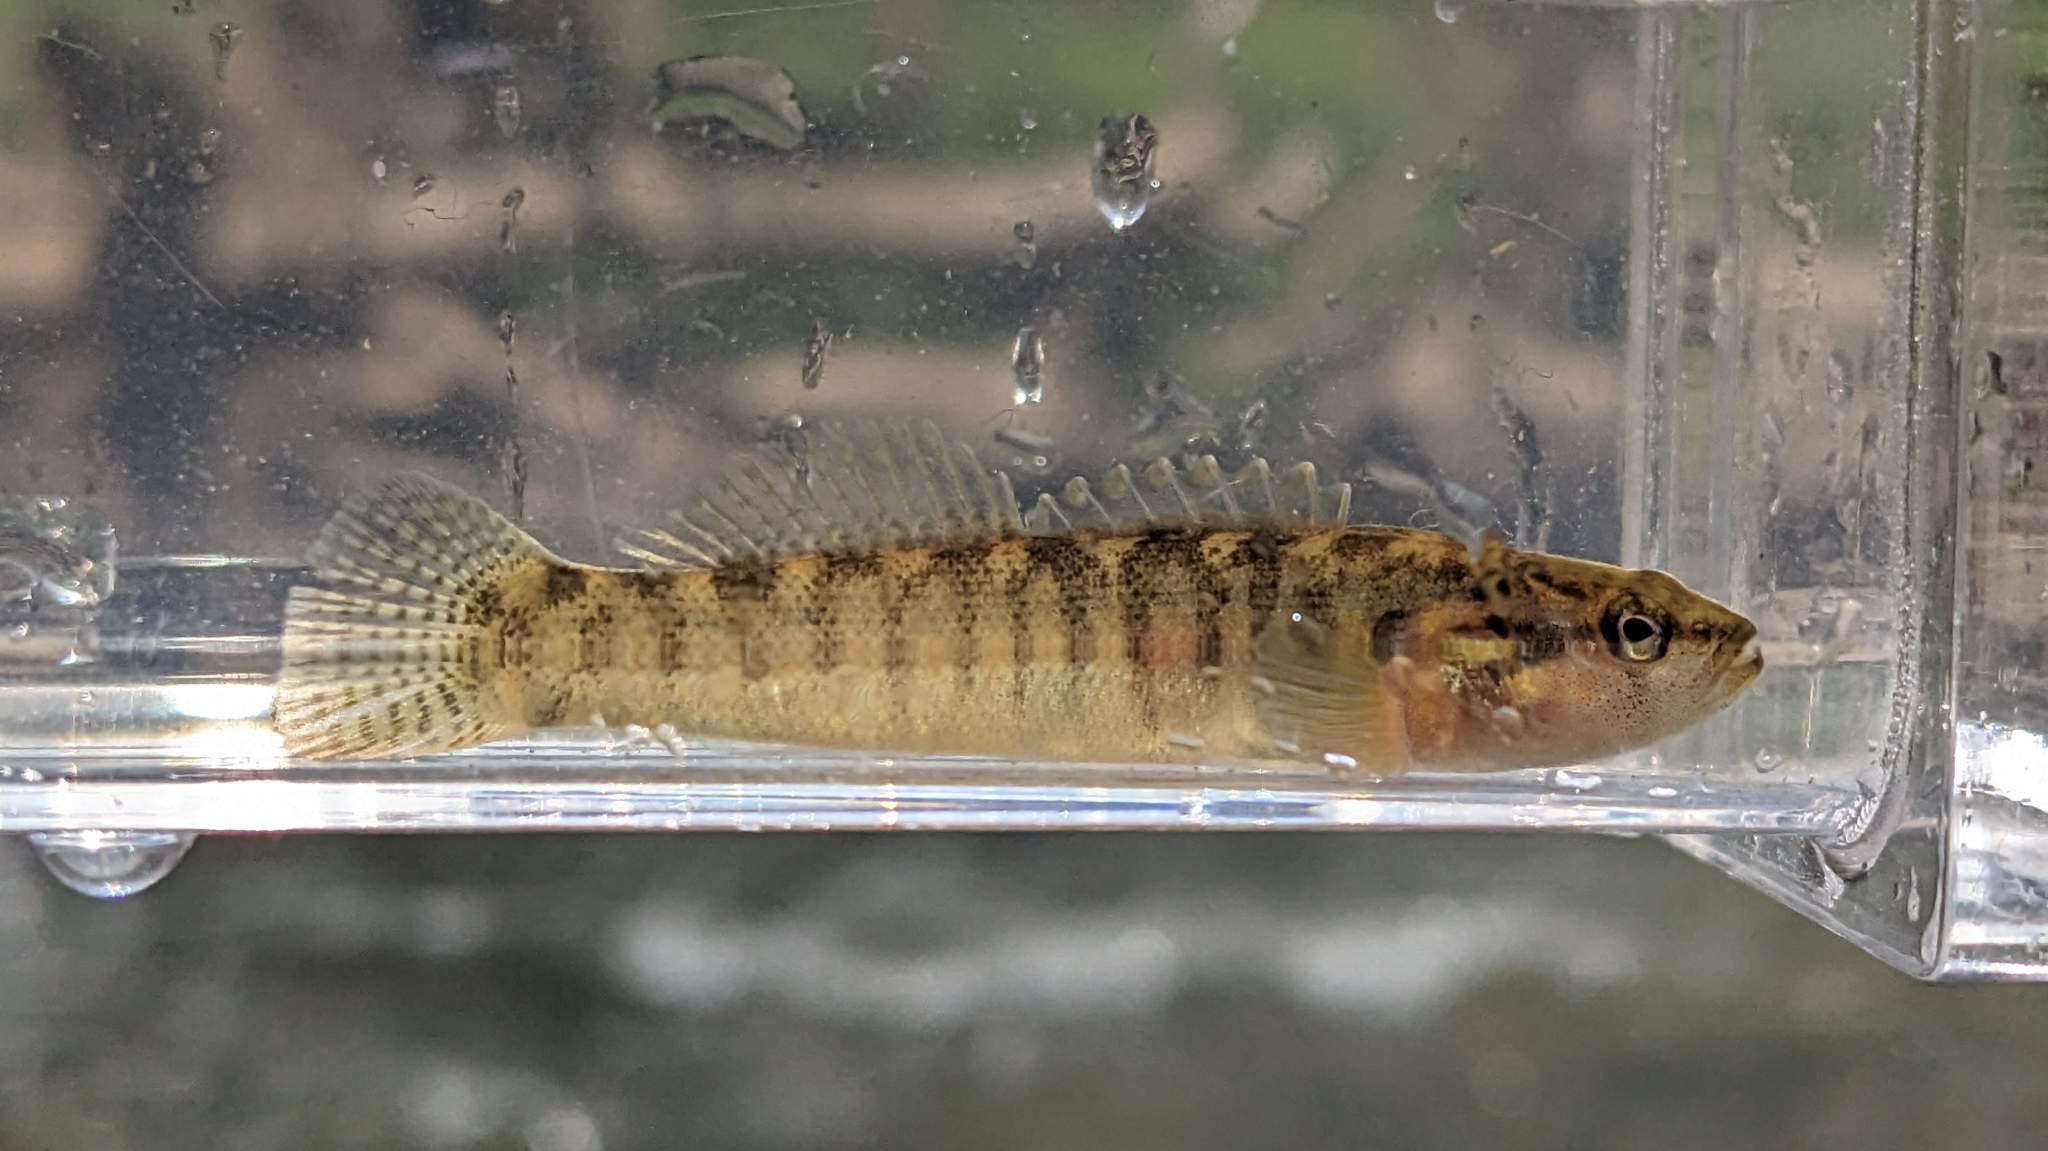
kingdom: Animalia
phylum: Chordata
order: Perciformes
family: Percidae
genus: Etheostoma
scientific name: Etheostoma flabellare
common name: Fantail darter
